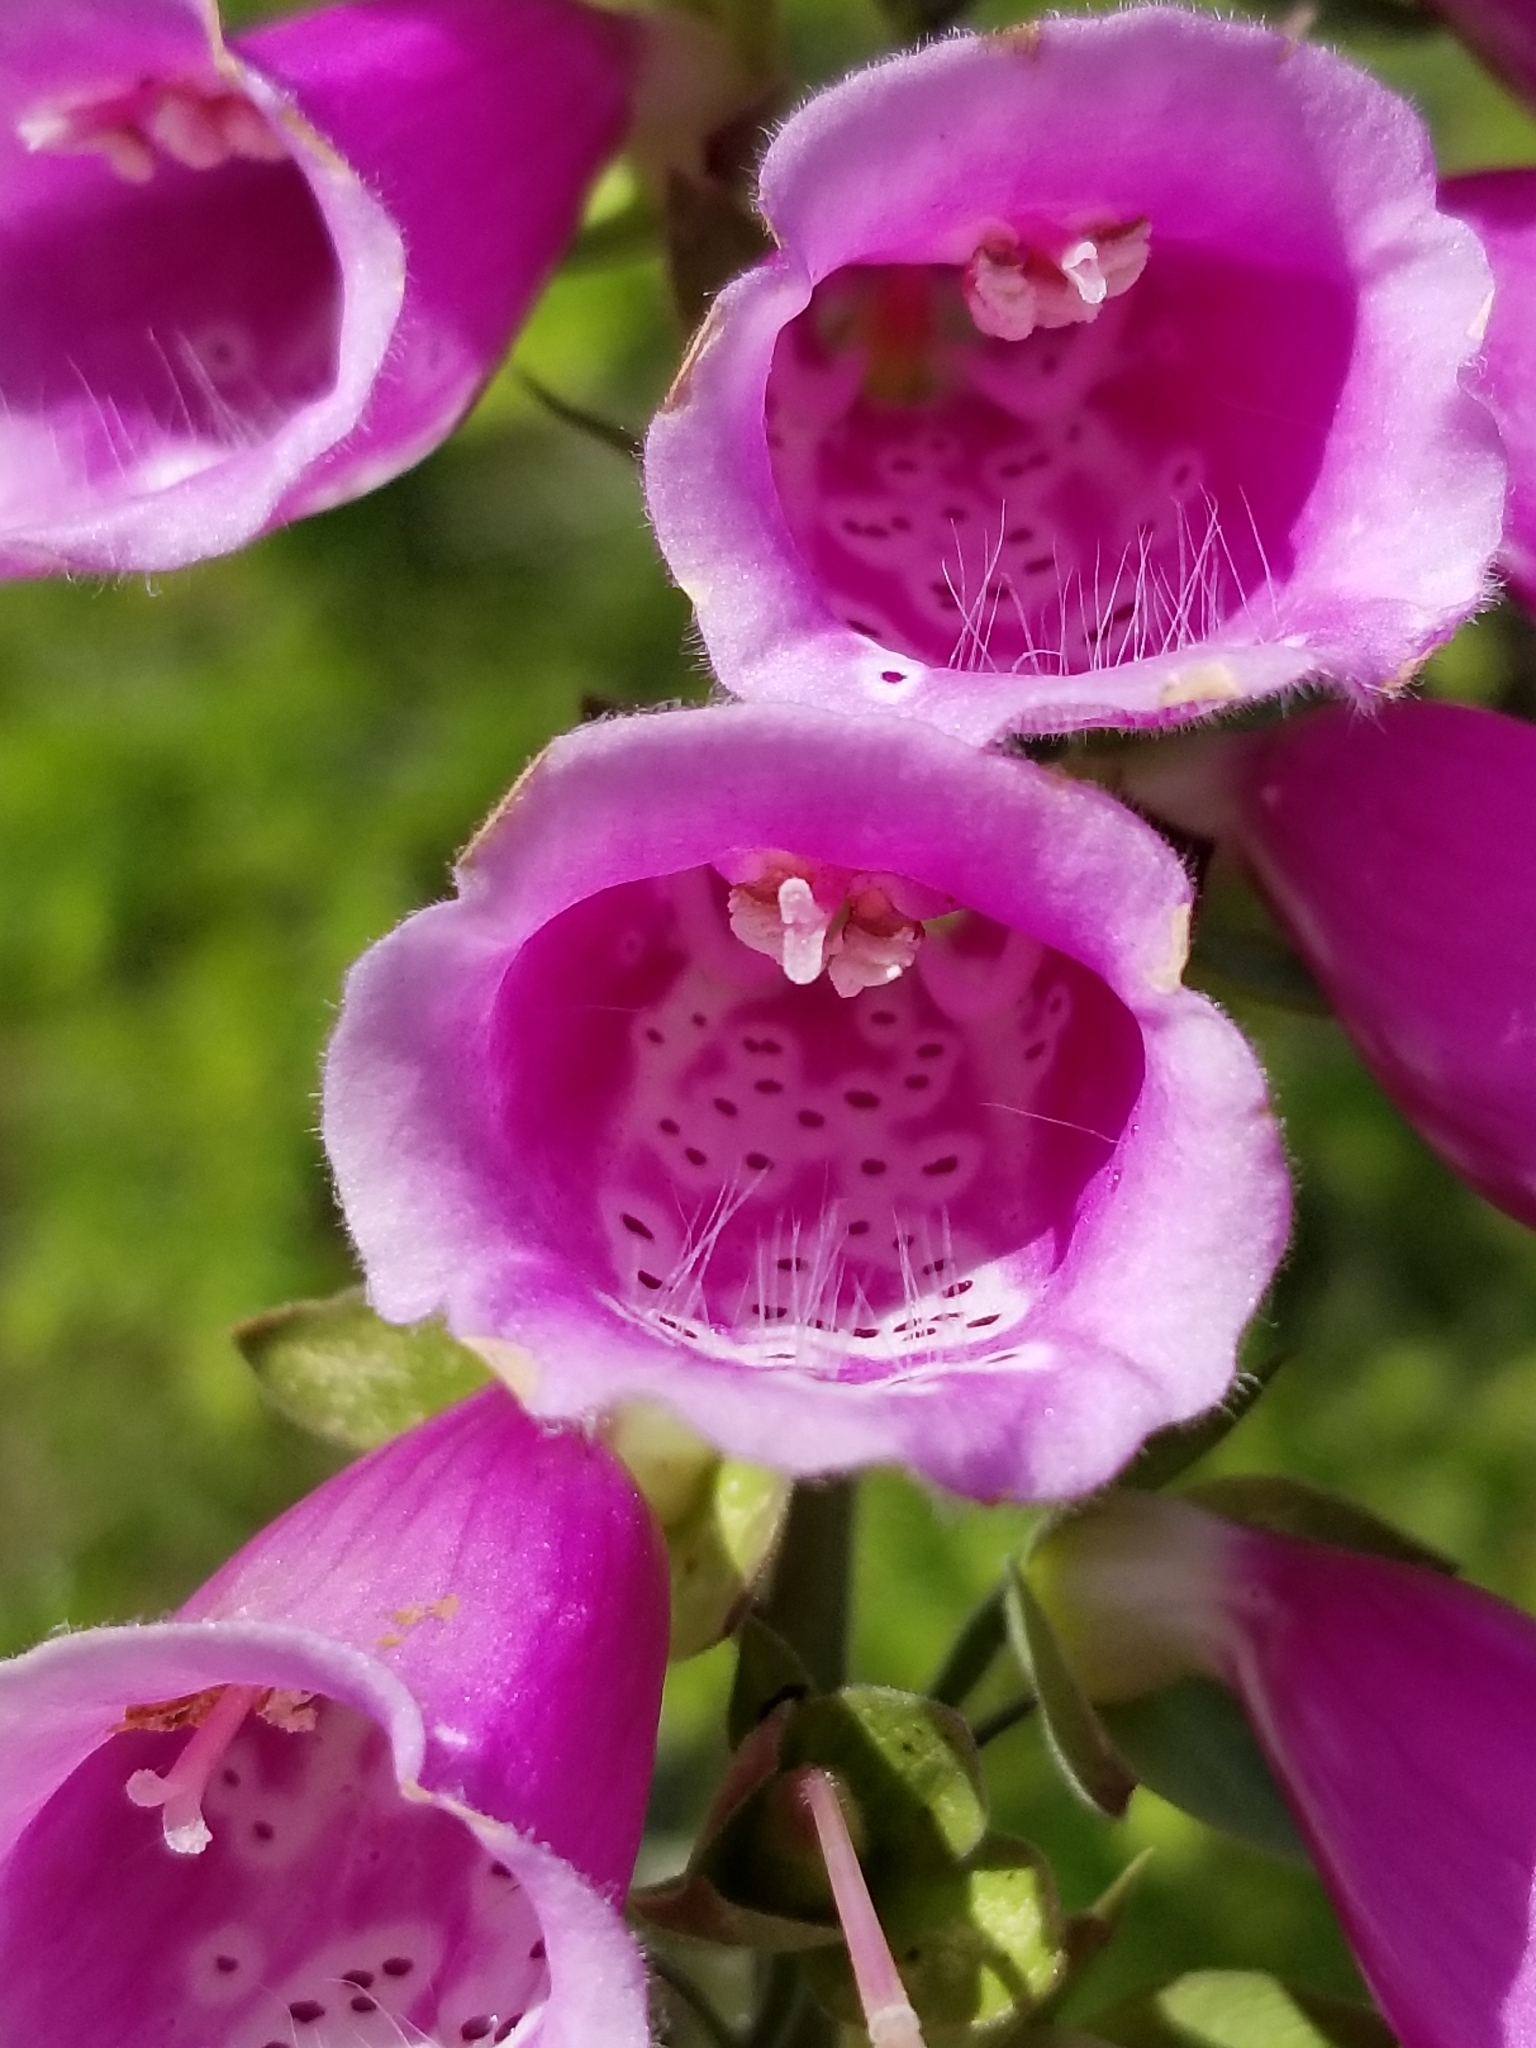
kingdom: Plantae
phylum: Tracheophyta
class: Magnoliopsida
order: Lamiales
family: Plantaginaceae
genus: Digitalis
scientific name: Digitalis purpurea
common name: Foxglove
